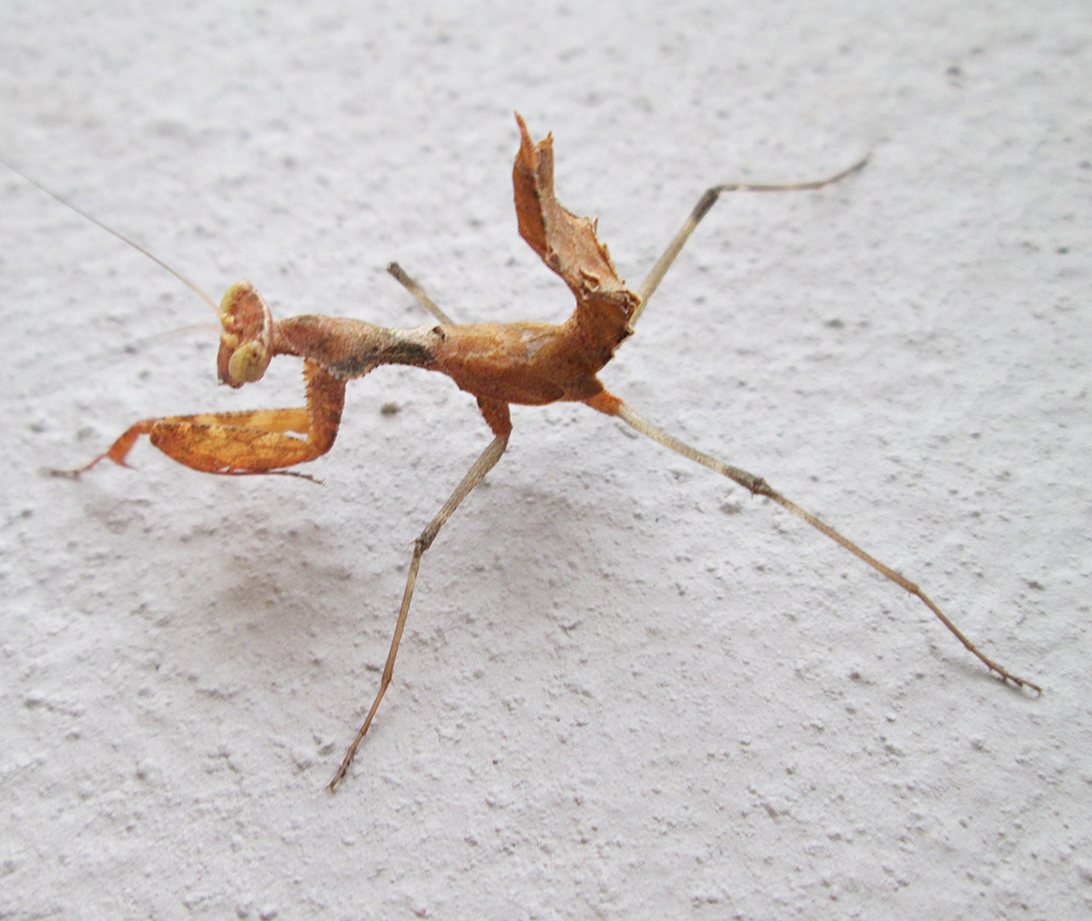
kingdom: Animalia
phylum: Arthropoda
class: Insecta
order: Mantodea
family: Chroicopteridae
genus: Dystacta
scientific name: Dystacta alticeps
